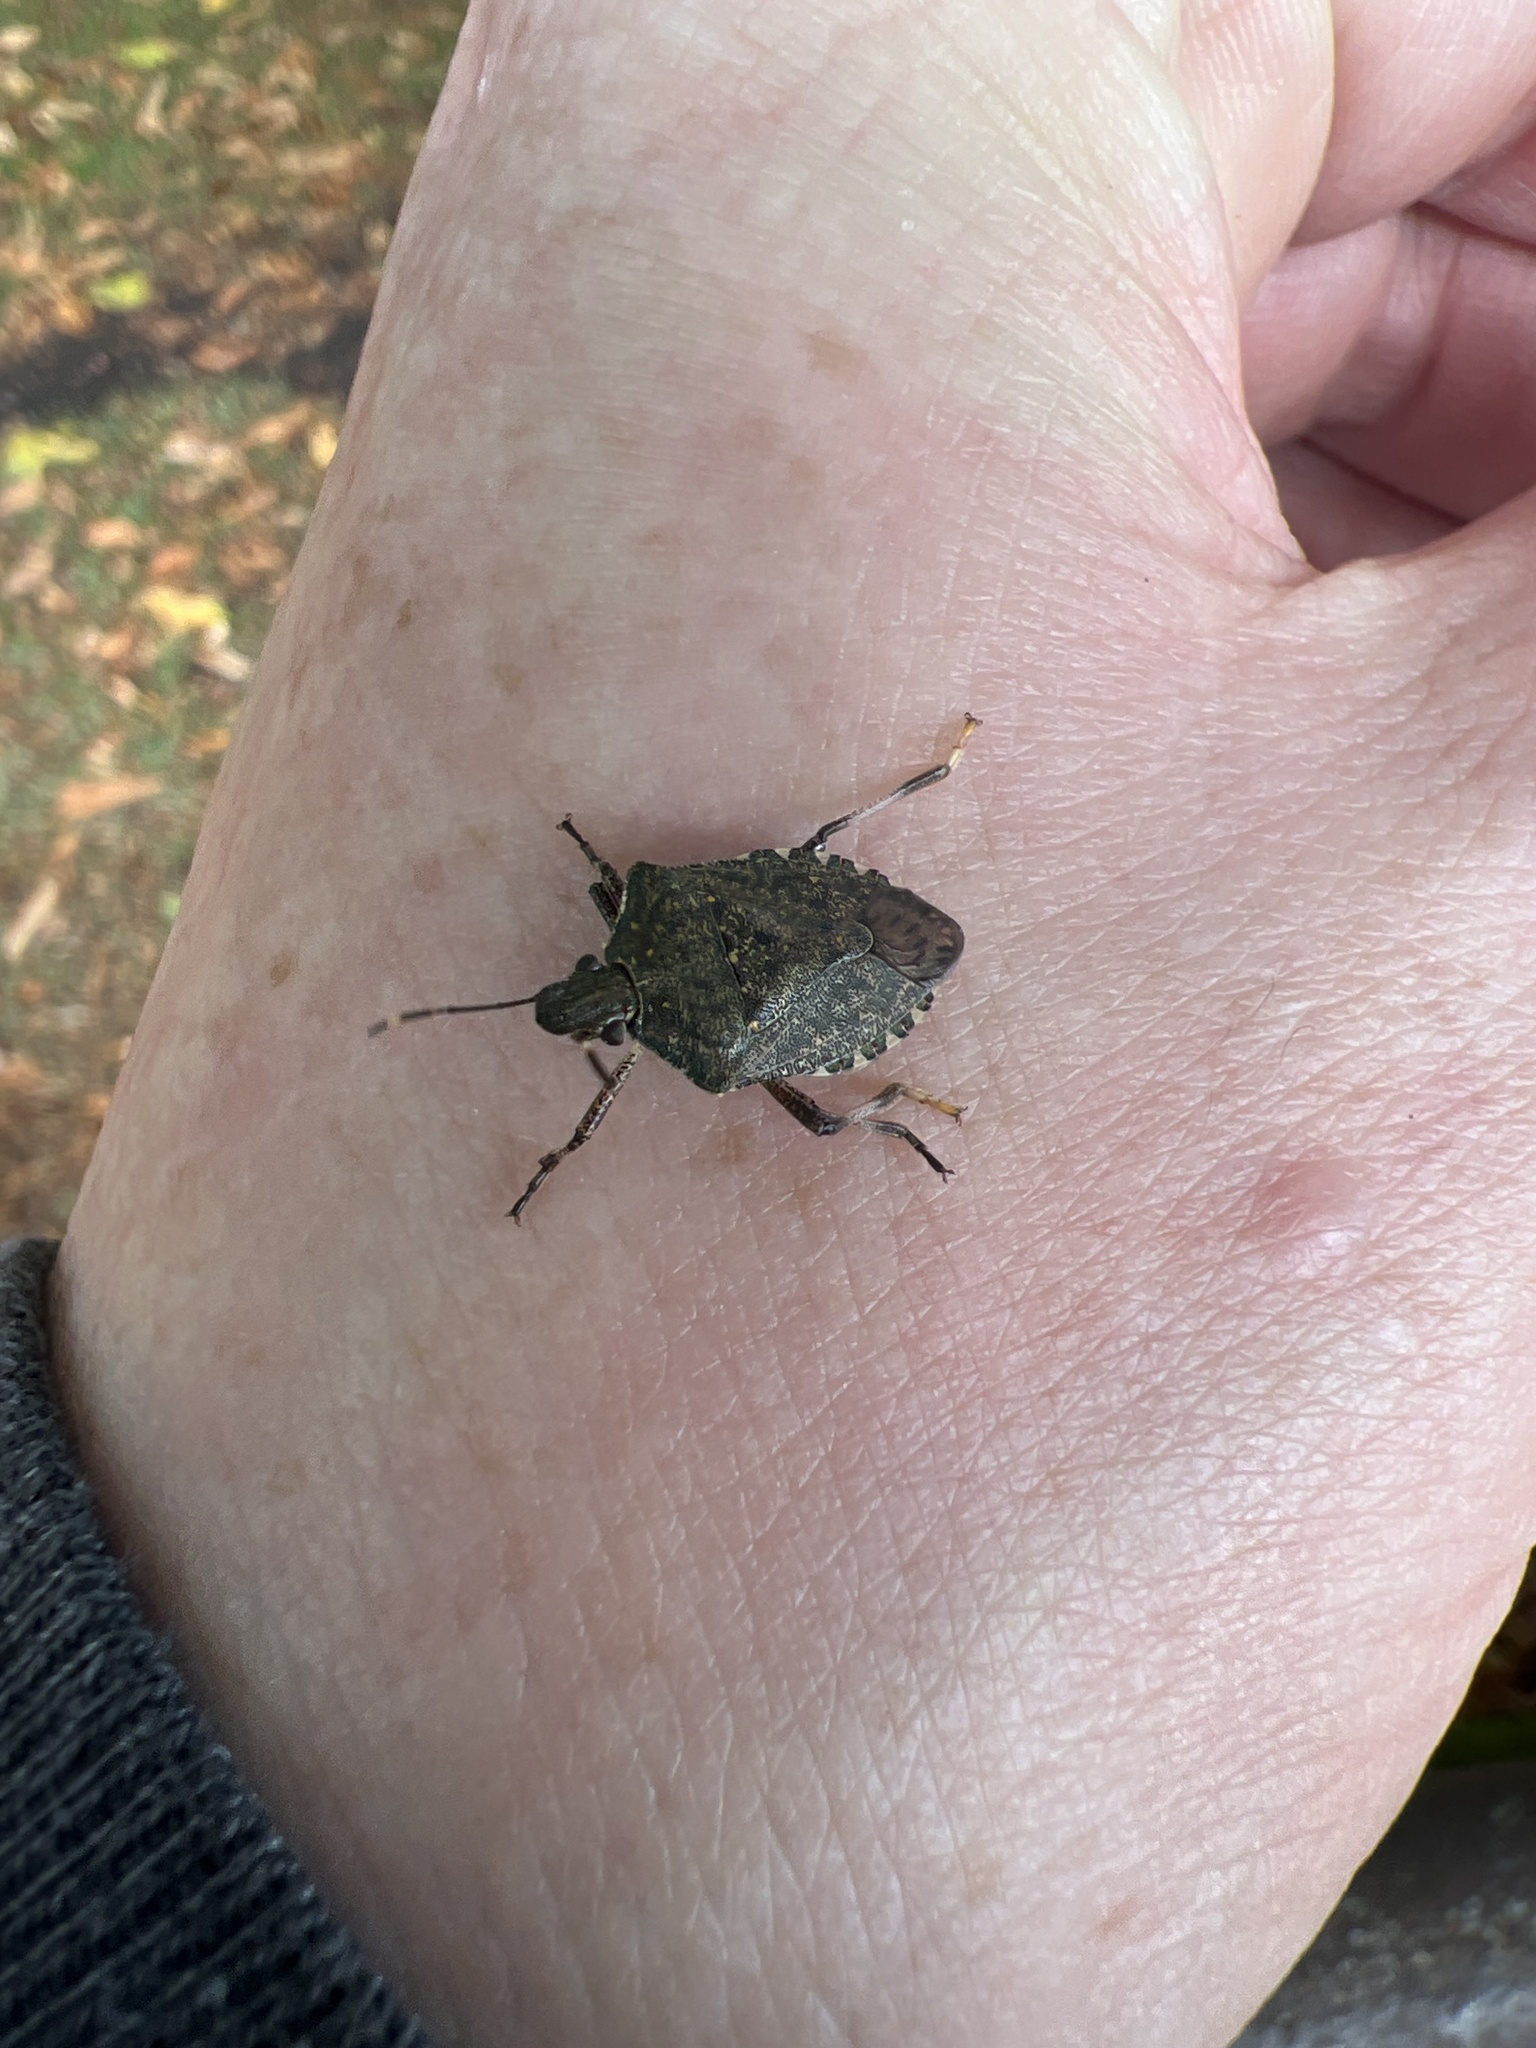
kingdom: Animalia
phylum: Arthropoda
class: Insecta
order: Hemiptera
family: Pentatomidae
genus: Halyomorpha
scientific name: Halyomorpha halys
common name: Brown marmorated stink bug
